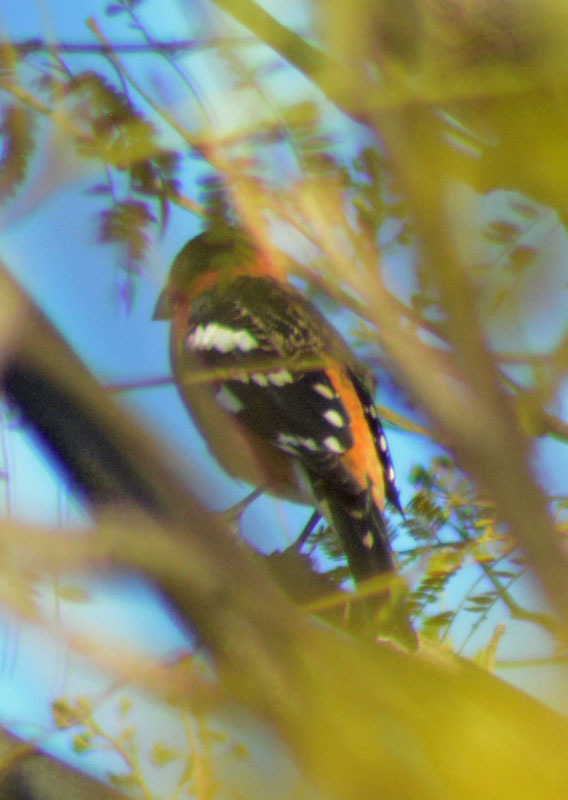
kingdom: Animalia
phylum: Chordata
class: Aves
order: Passeriformes
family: Cardinalidae
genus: Pheucticus
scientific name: Pheucticus melanocephalus
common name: Black-headed grosbeak
